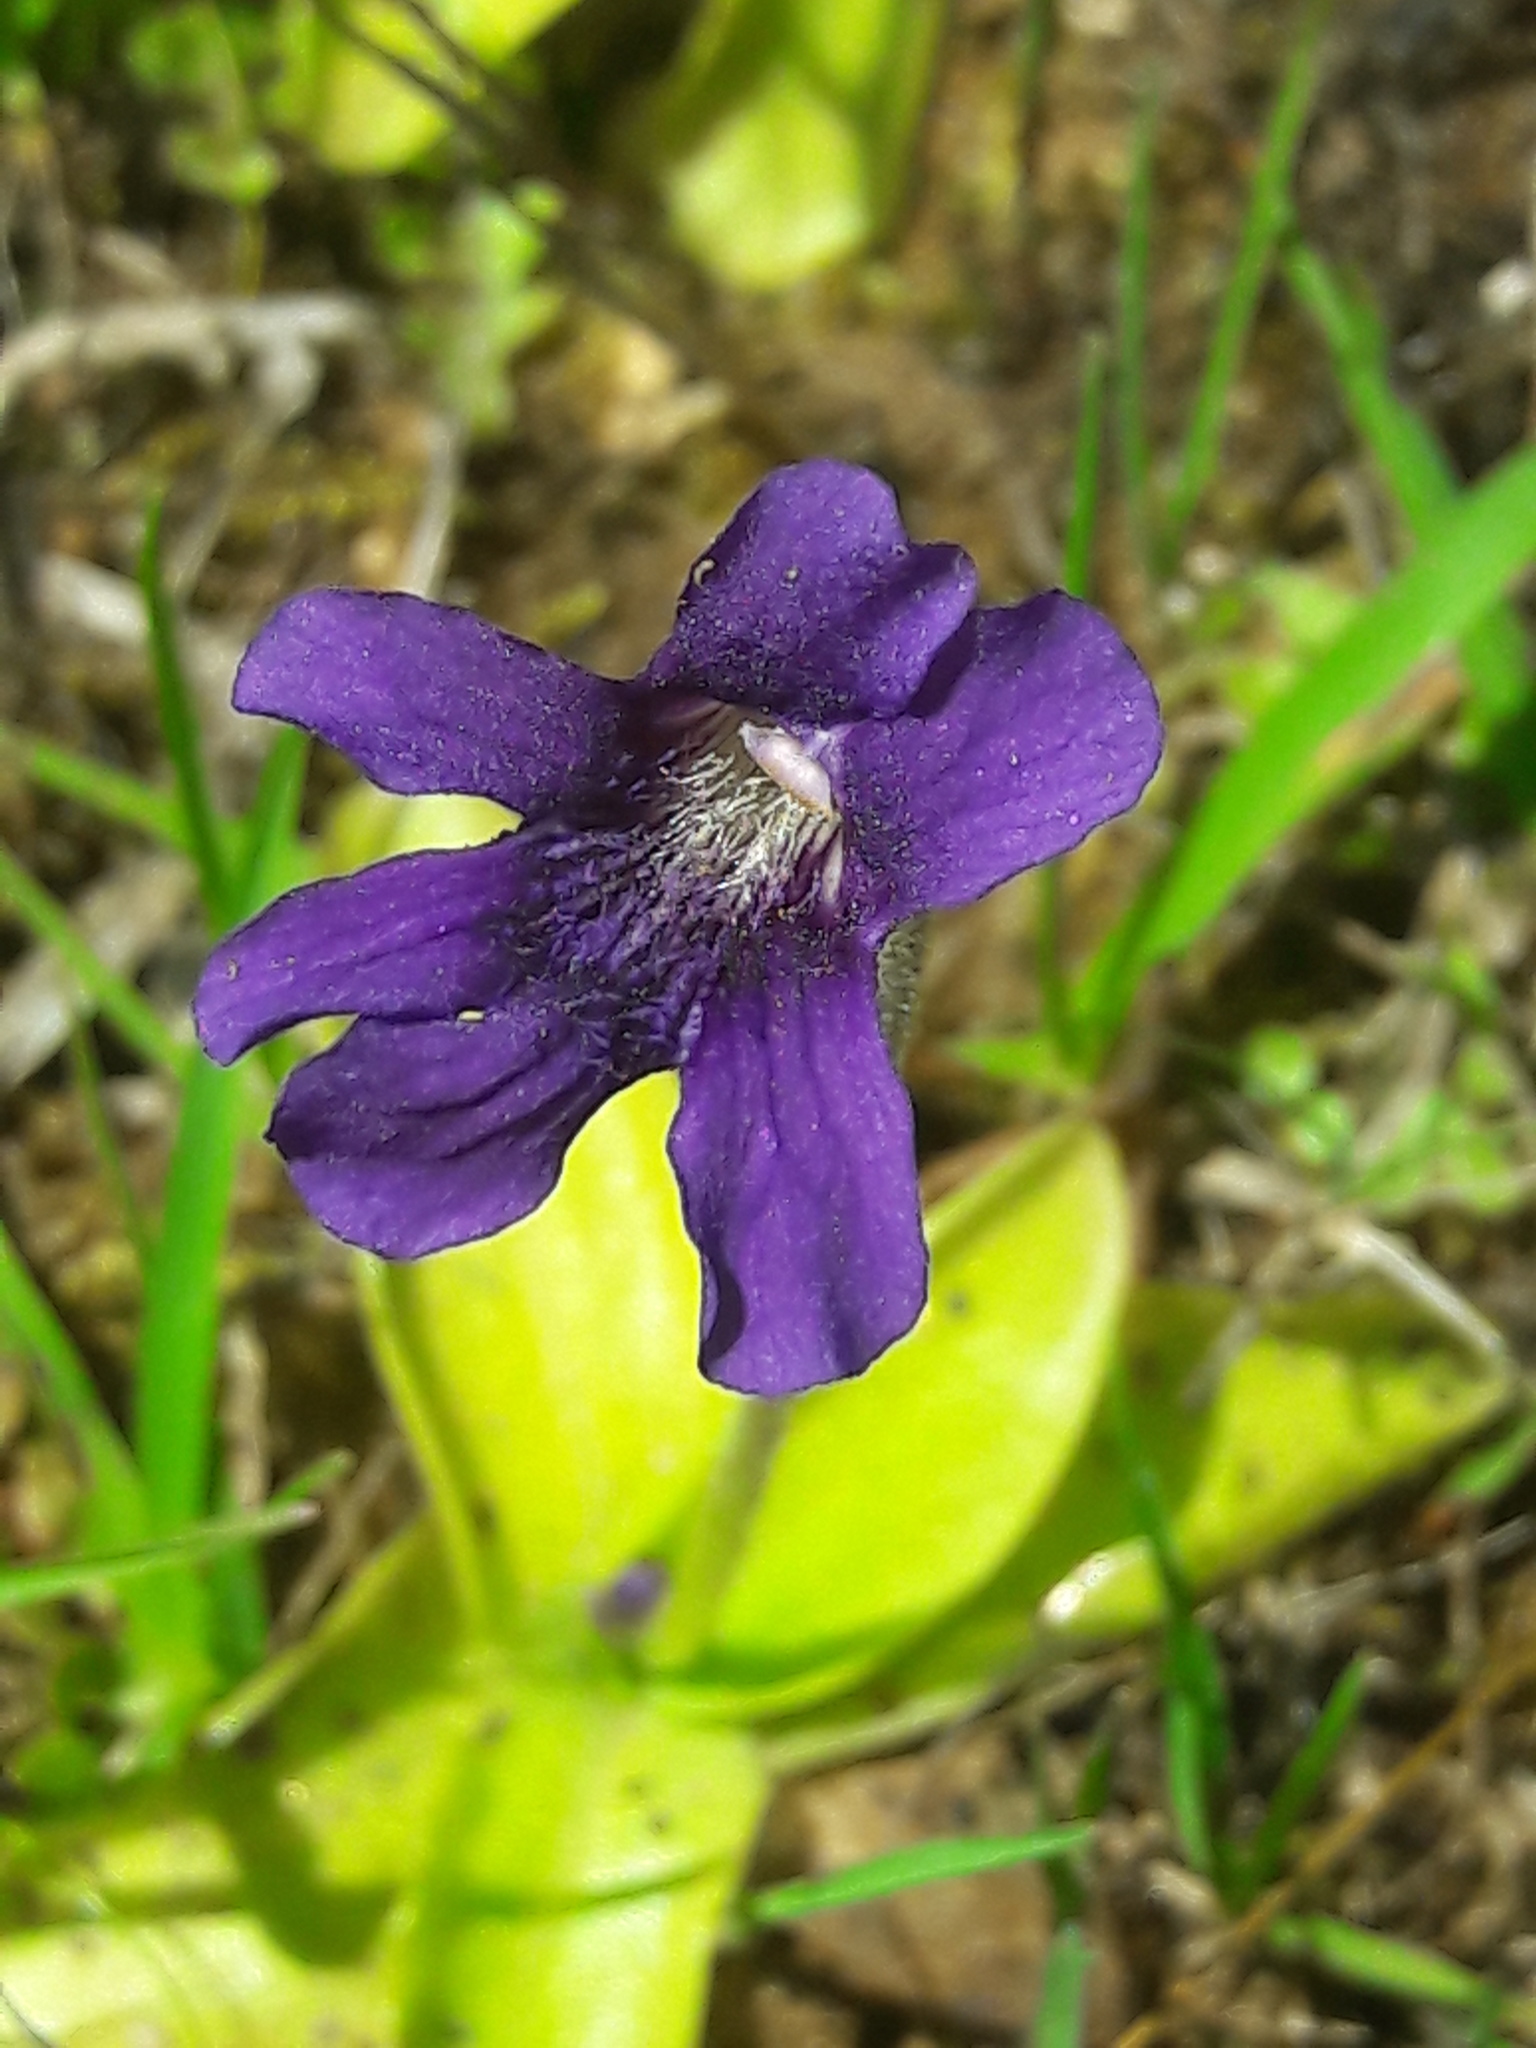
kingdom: Plantae
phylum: Tracheophyta
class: Magnoliopsida
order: Lamiales
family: Lentibulariaceae
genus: Pinguicula
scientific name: Pinguicula grandiflora
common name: Large-flowered butterwort
